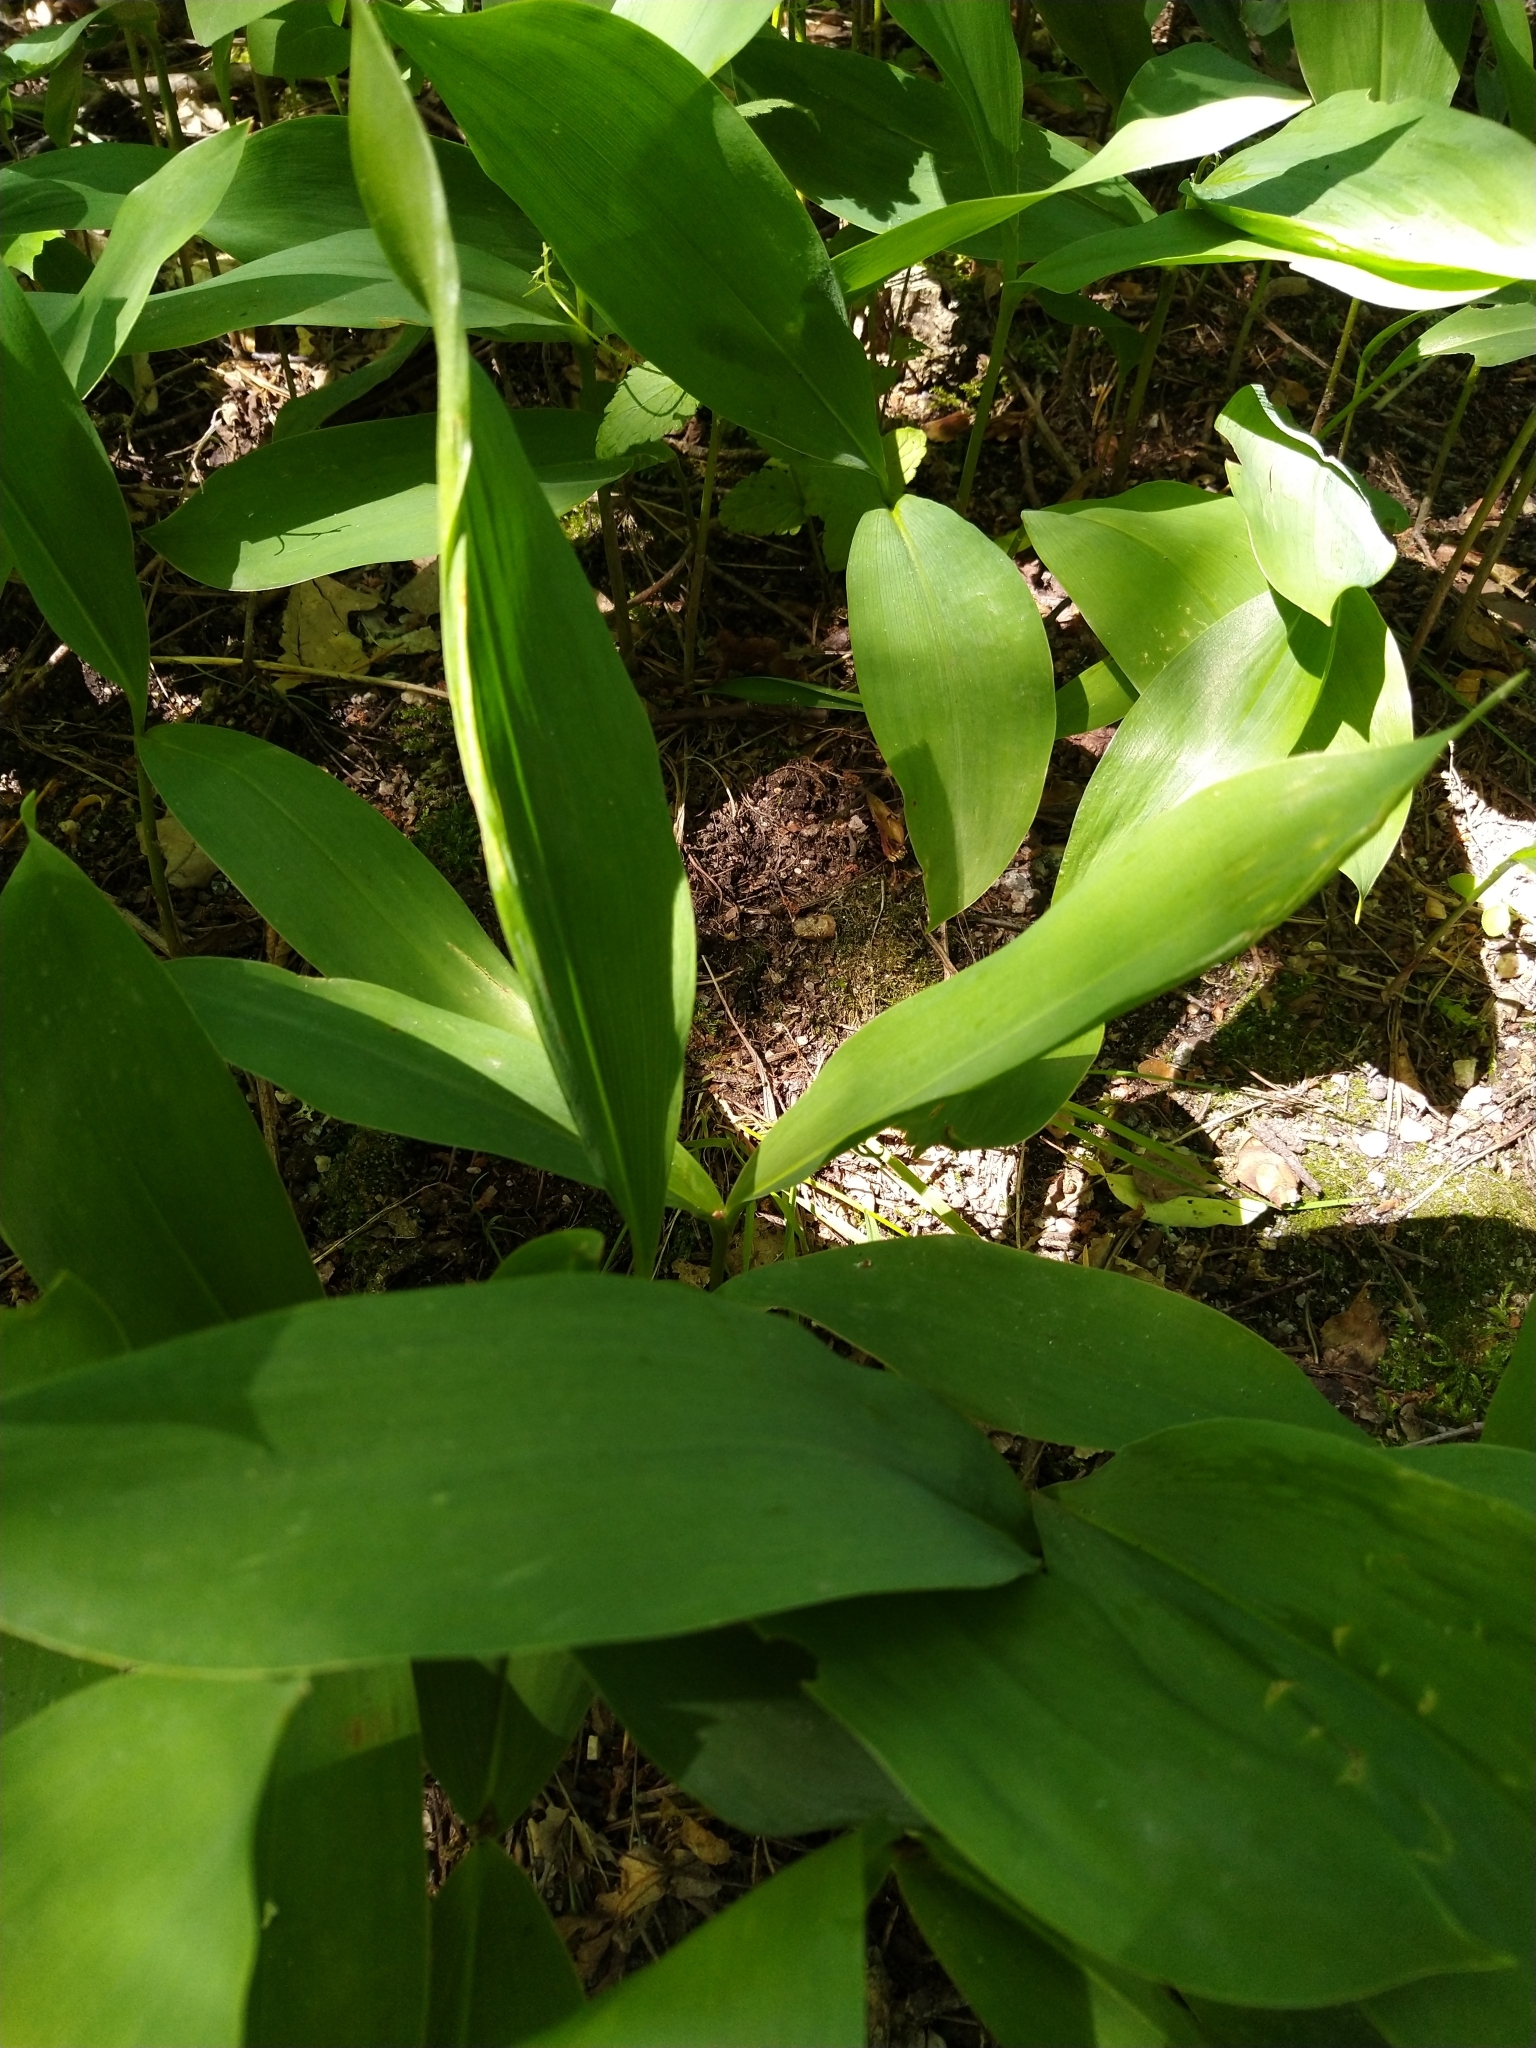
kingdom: Plantae
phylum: Tracheophyta
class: Liliopsida
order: Asparagales
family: Asparagaceae
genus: Convallaria
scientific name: Convallaria majalis
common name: Lily-of-the-valley
